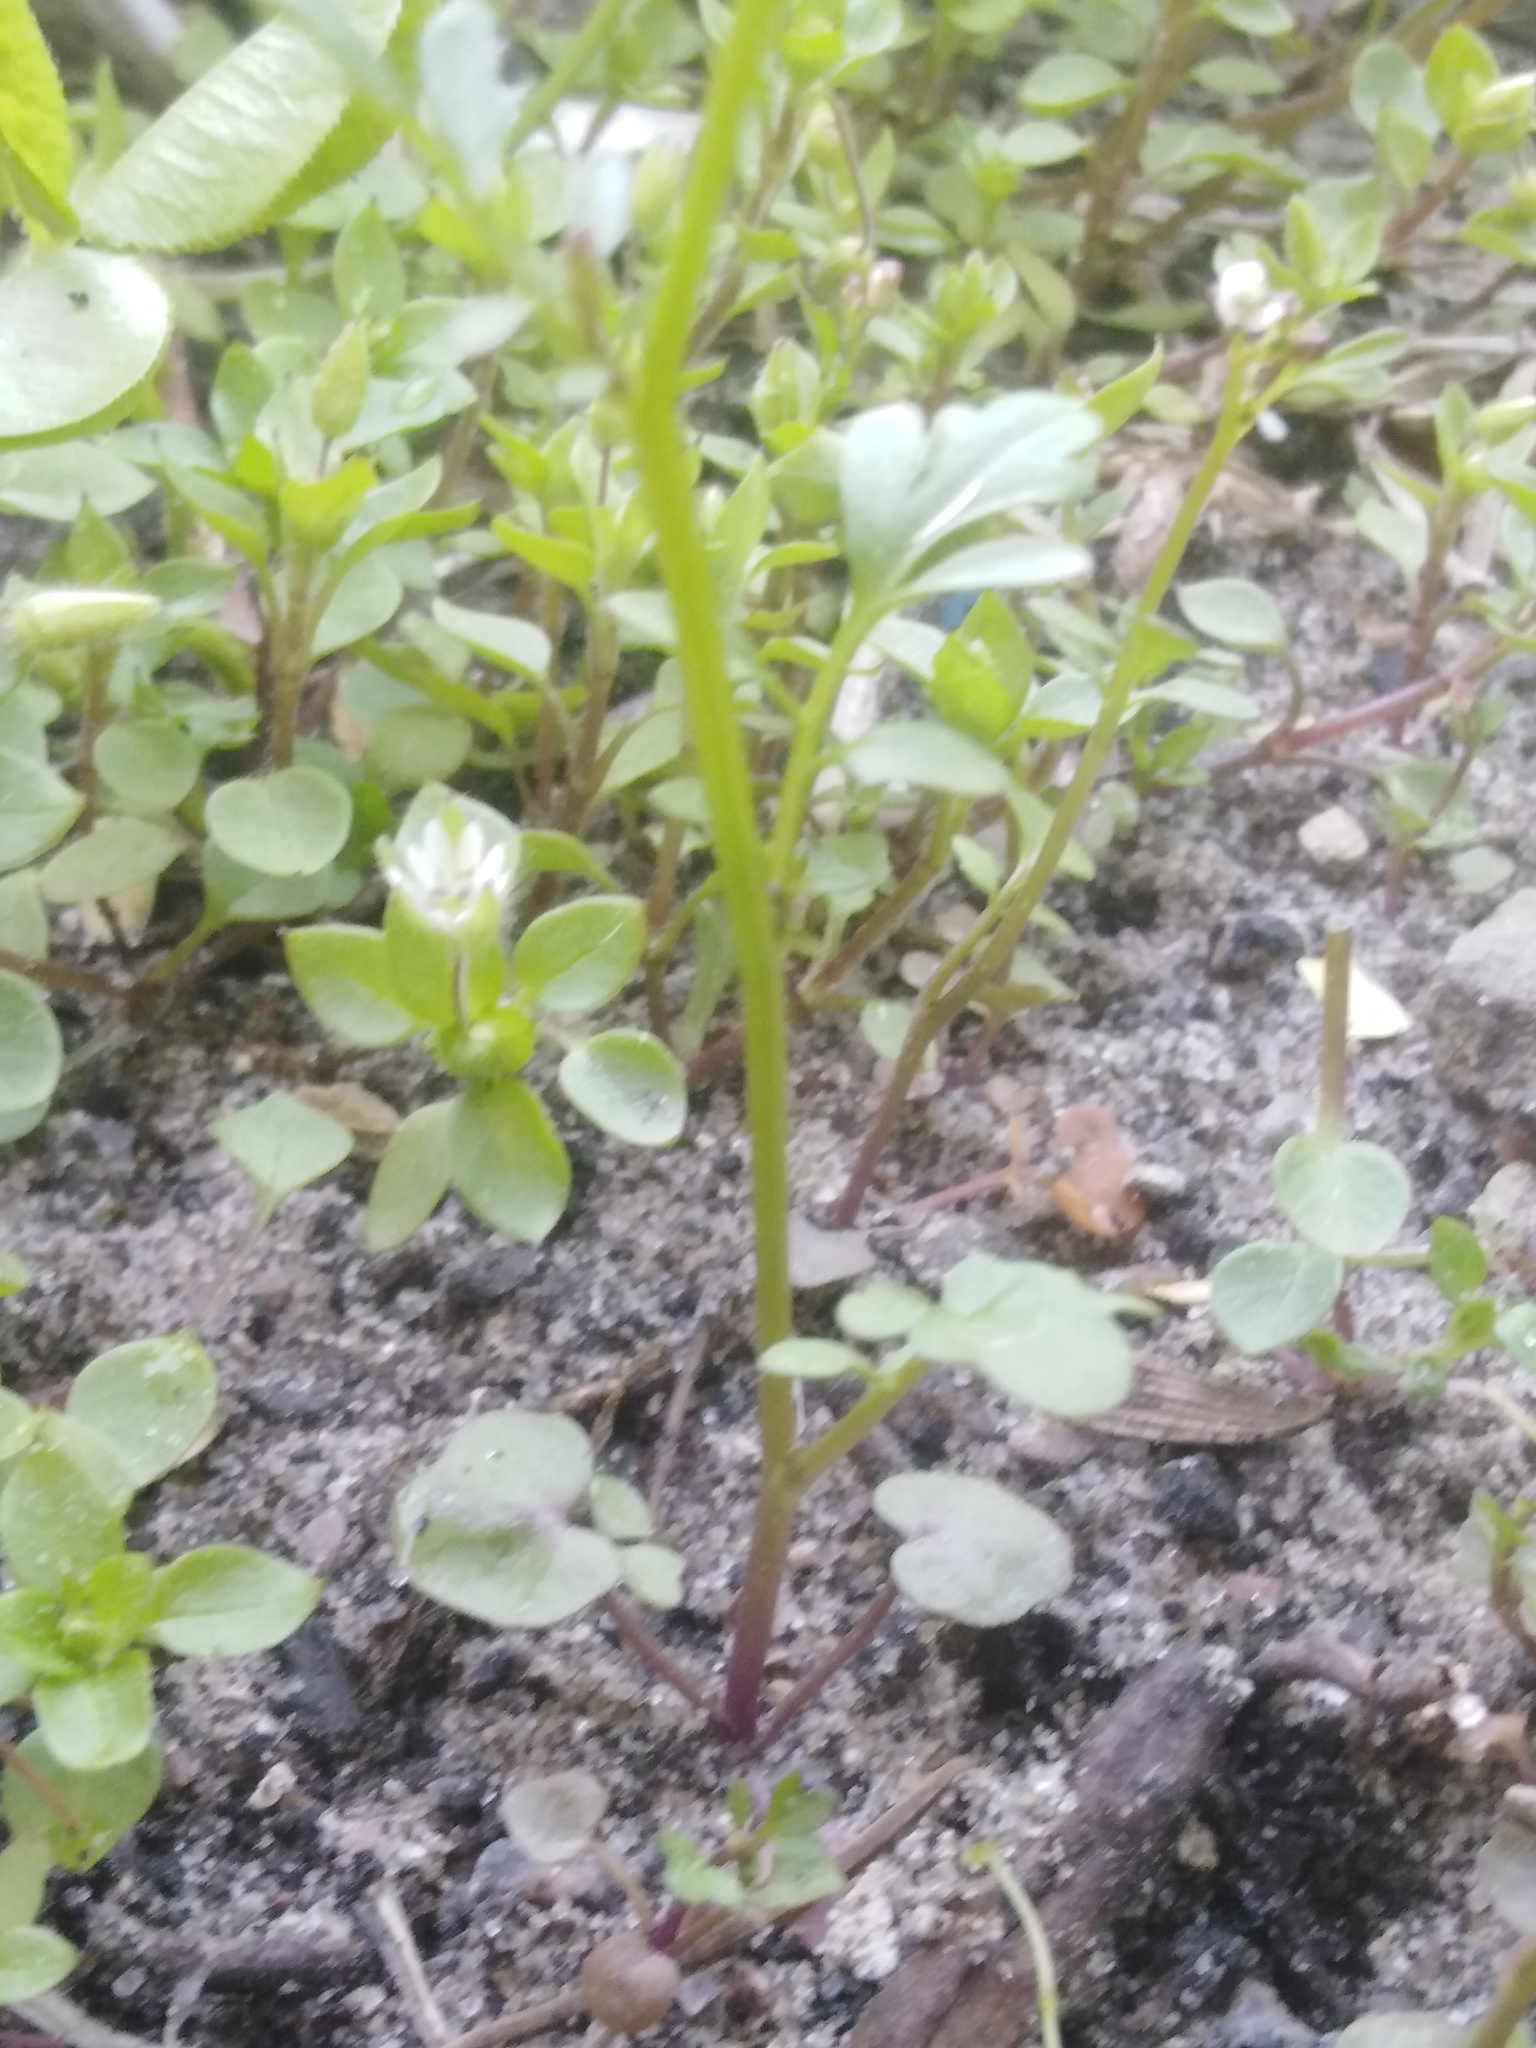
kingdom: Plantae
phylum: Tracheophyta
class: Magnoliopsida
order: Brassicales
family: Brassicaceae
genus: Cardamine
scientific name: Cardamine occulta
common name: Asian wavy bittercress
